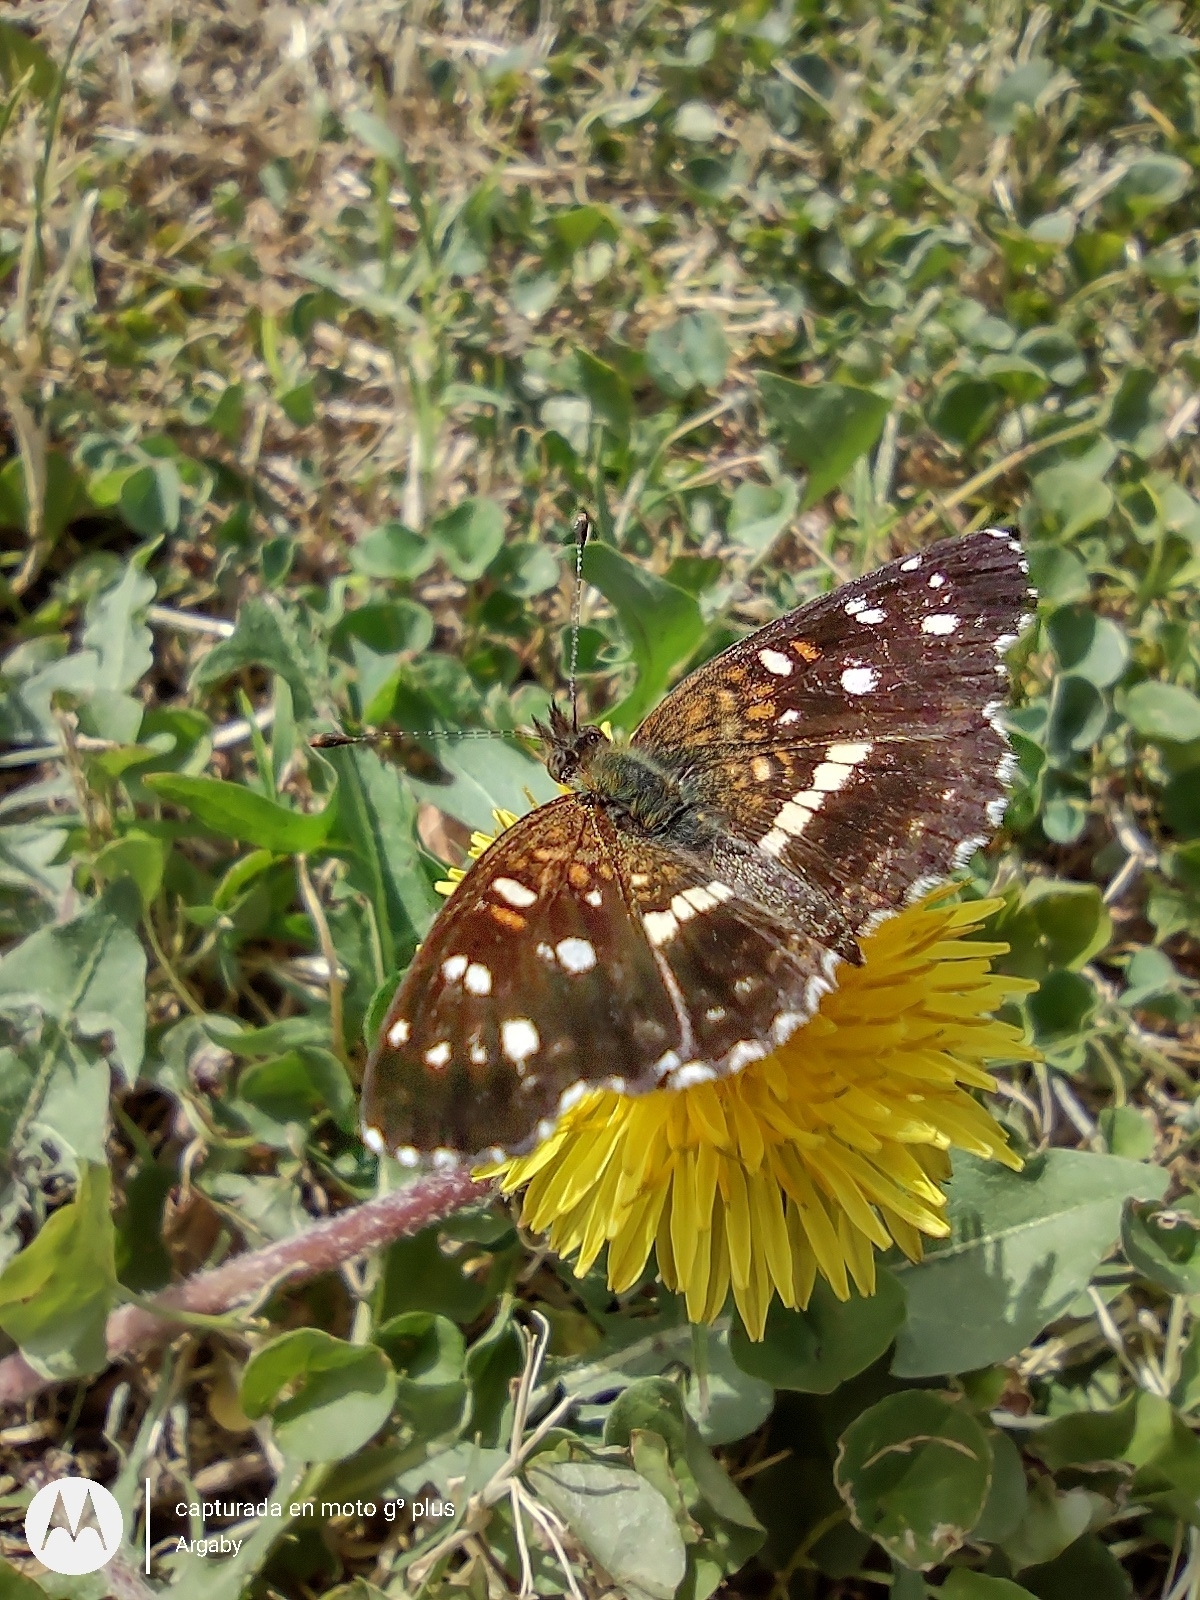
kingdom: Animalia
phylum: Arthropoda
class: Insecta
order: Lepidoptera
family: Nymphalidae
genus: Ortilia
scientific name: Ortilia ithra
